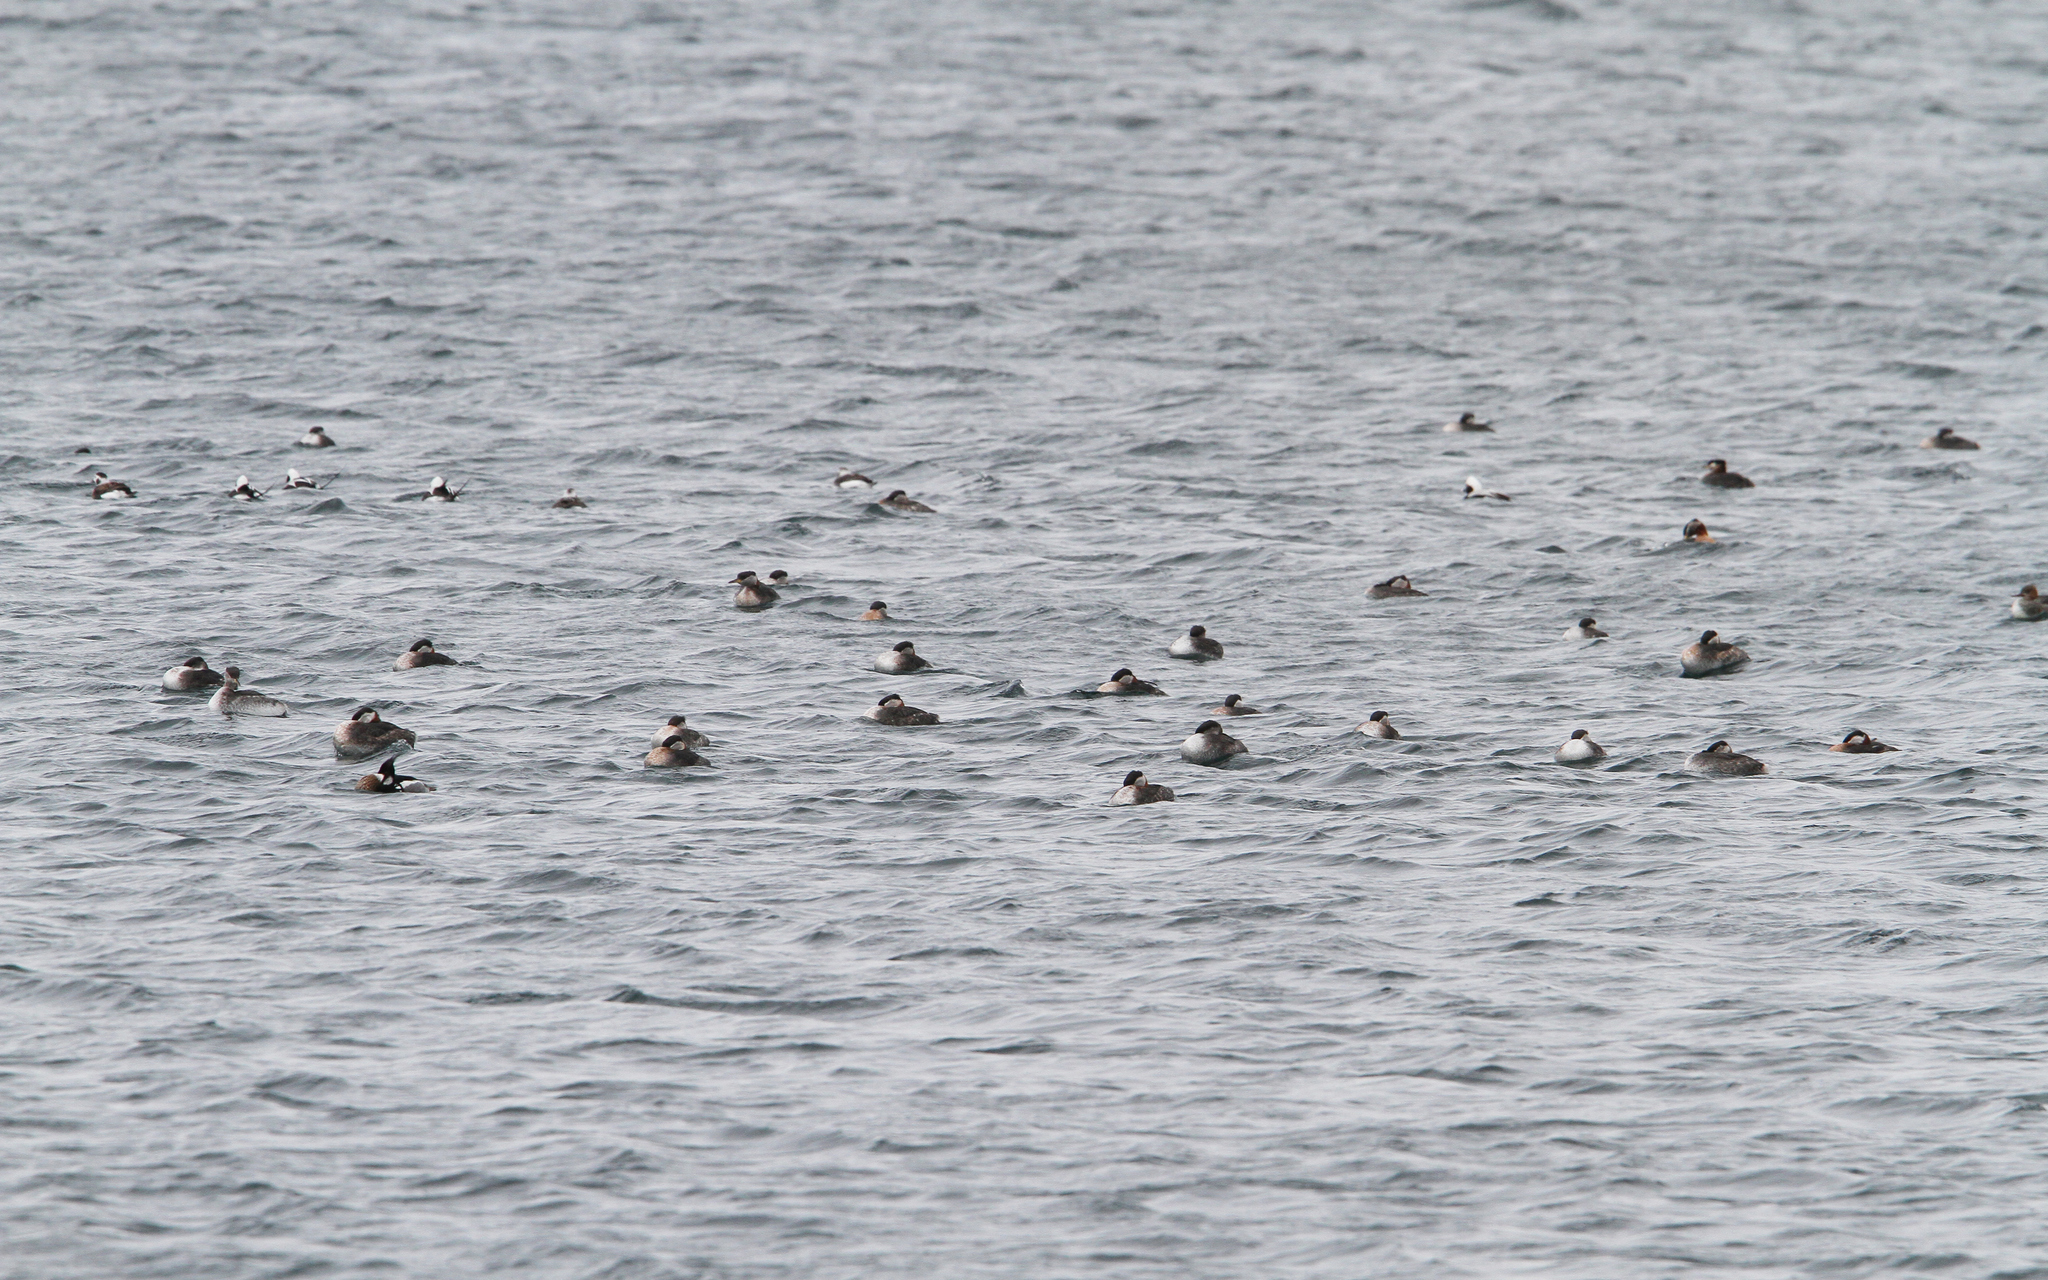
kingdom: Animalia
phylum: Chordata
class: Aves
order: Podicipediformes
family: Podicipedidae
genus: Podiceps
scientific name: Podiceps grisegena
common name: Red-necked grebe
